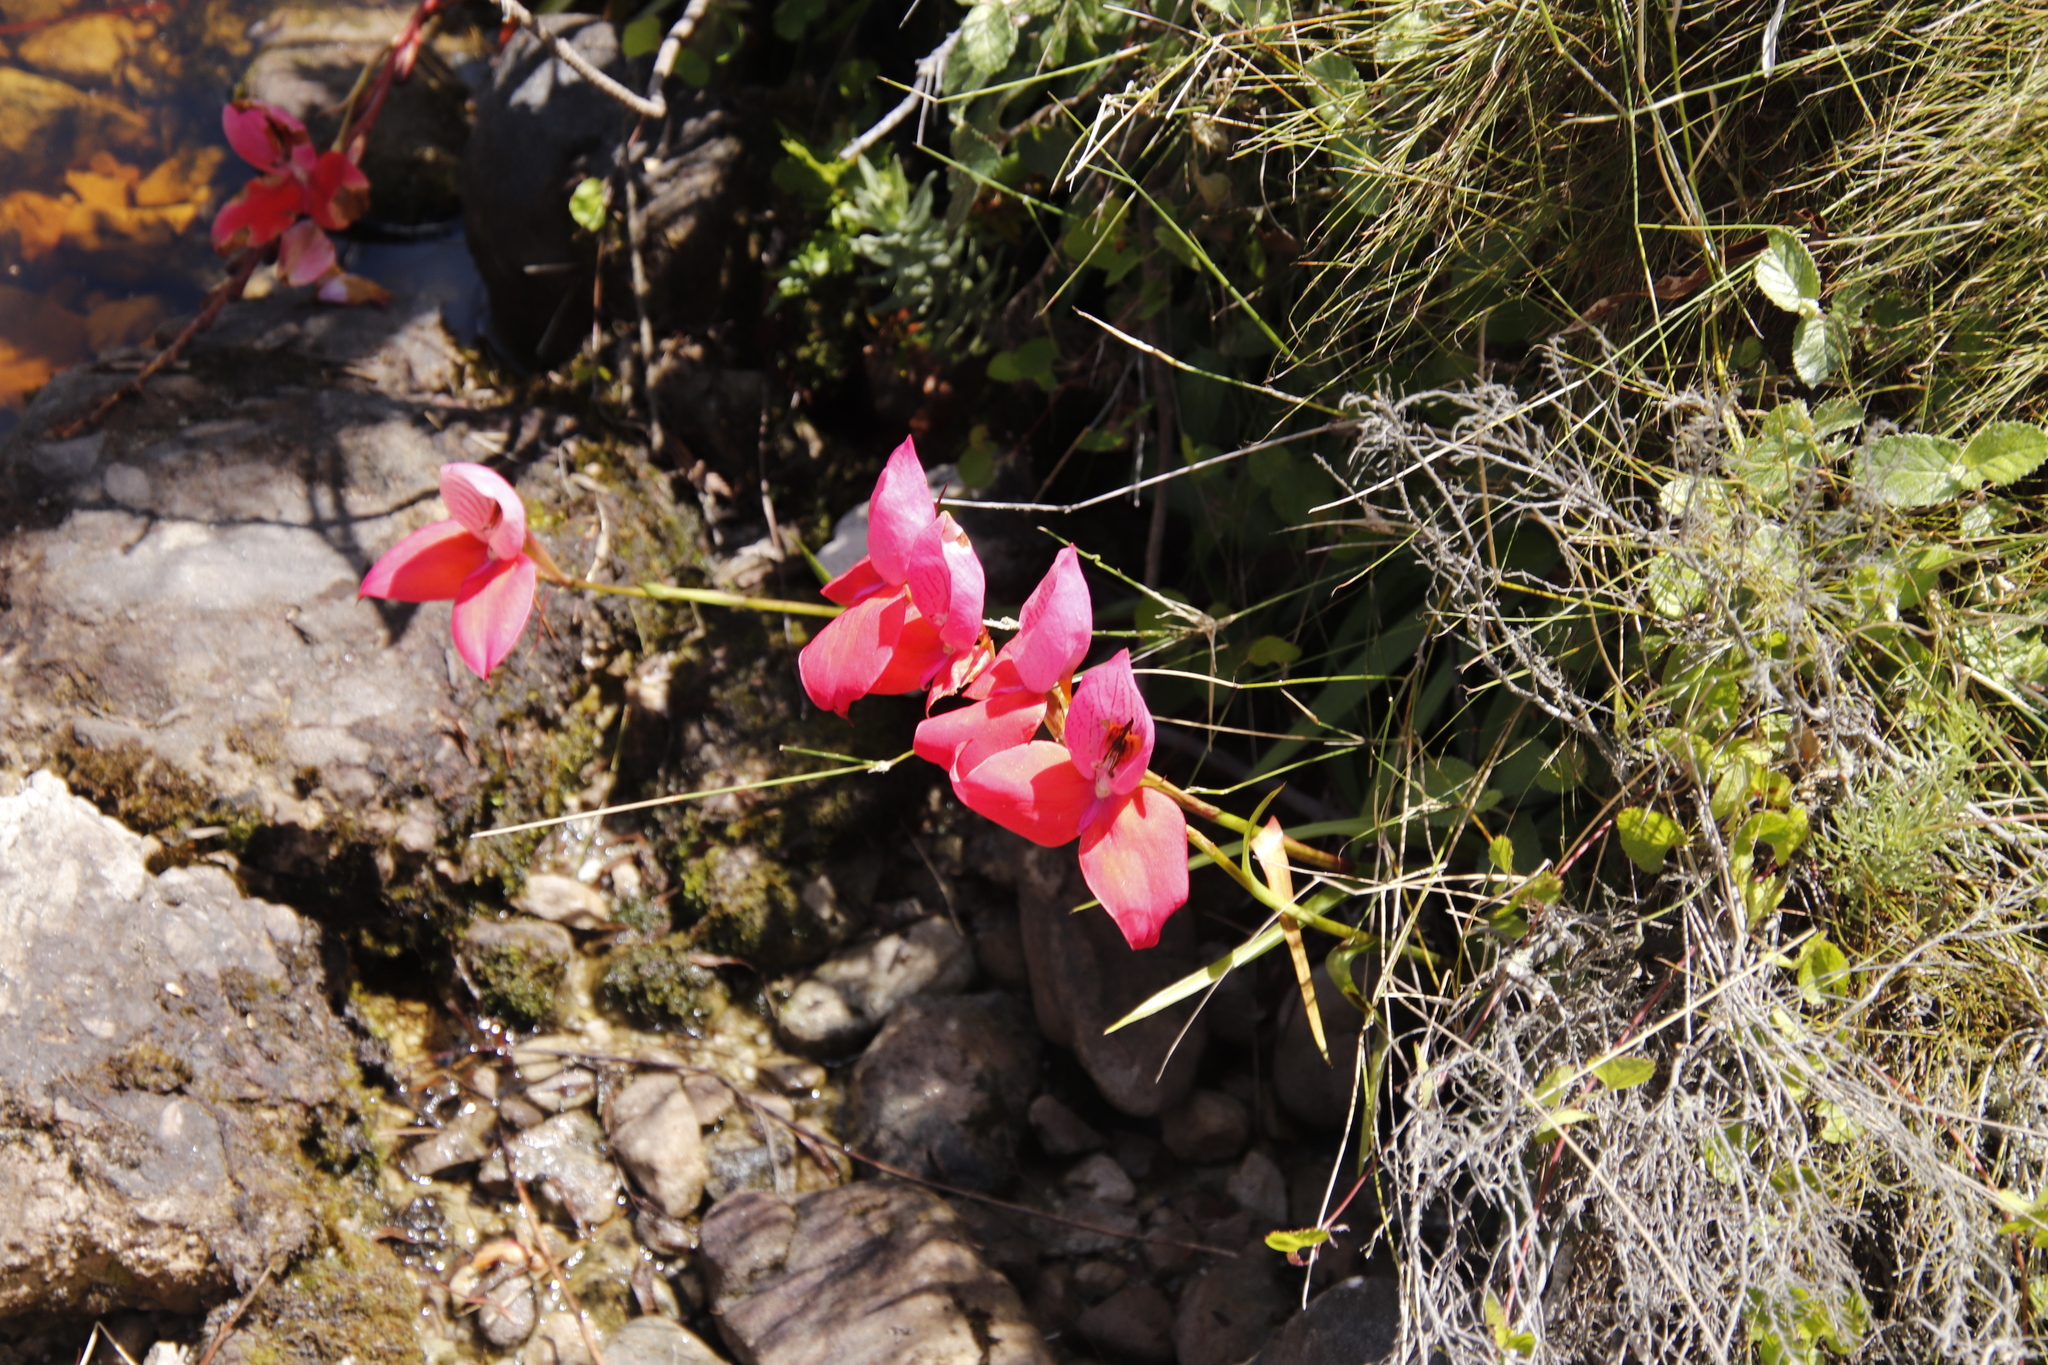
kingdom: Plantae
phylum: Tracheophyta
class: Liliopsida
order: Asparagales
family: Orchidaceae
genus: Disa
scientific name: Disa uniflora
